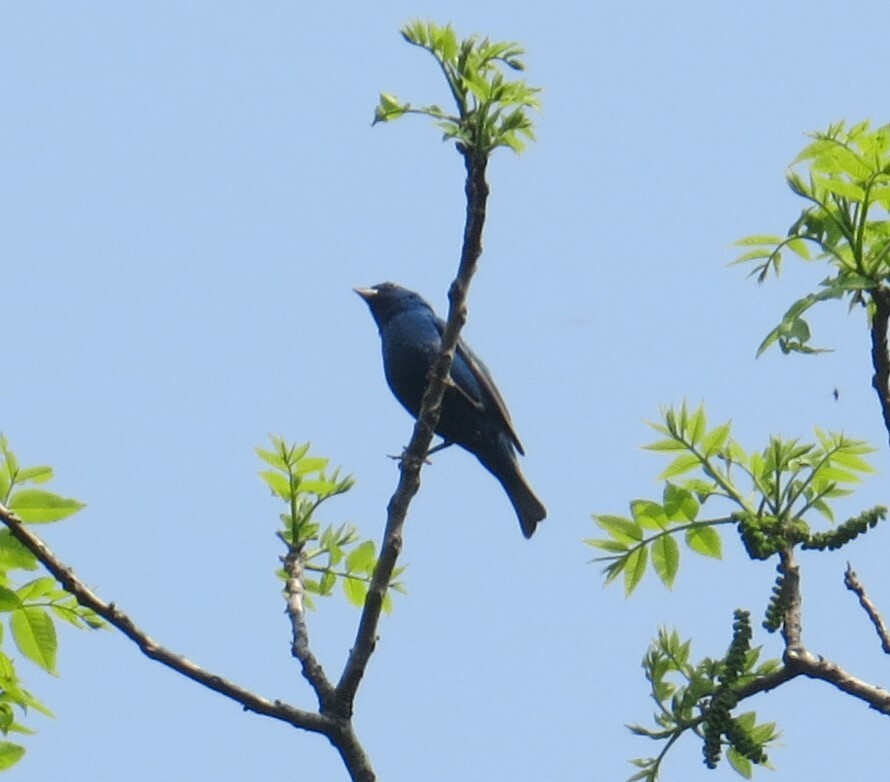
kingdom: Animalia
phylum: Chordata
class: Aves
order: Passeriformes
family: Cardinalidae
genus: Passerina
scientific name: Passerina cyanea
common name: Indigo bunting
